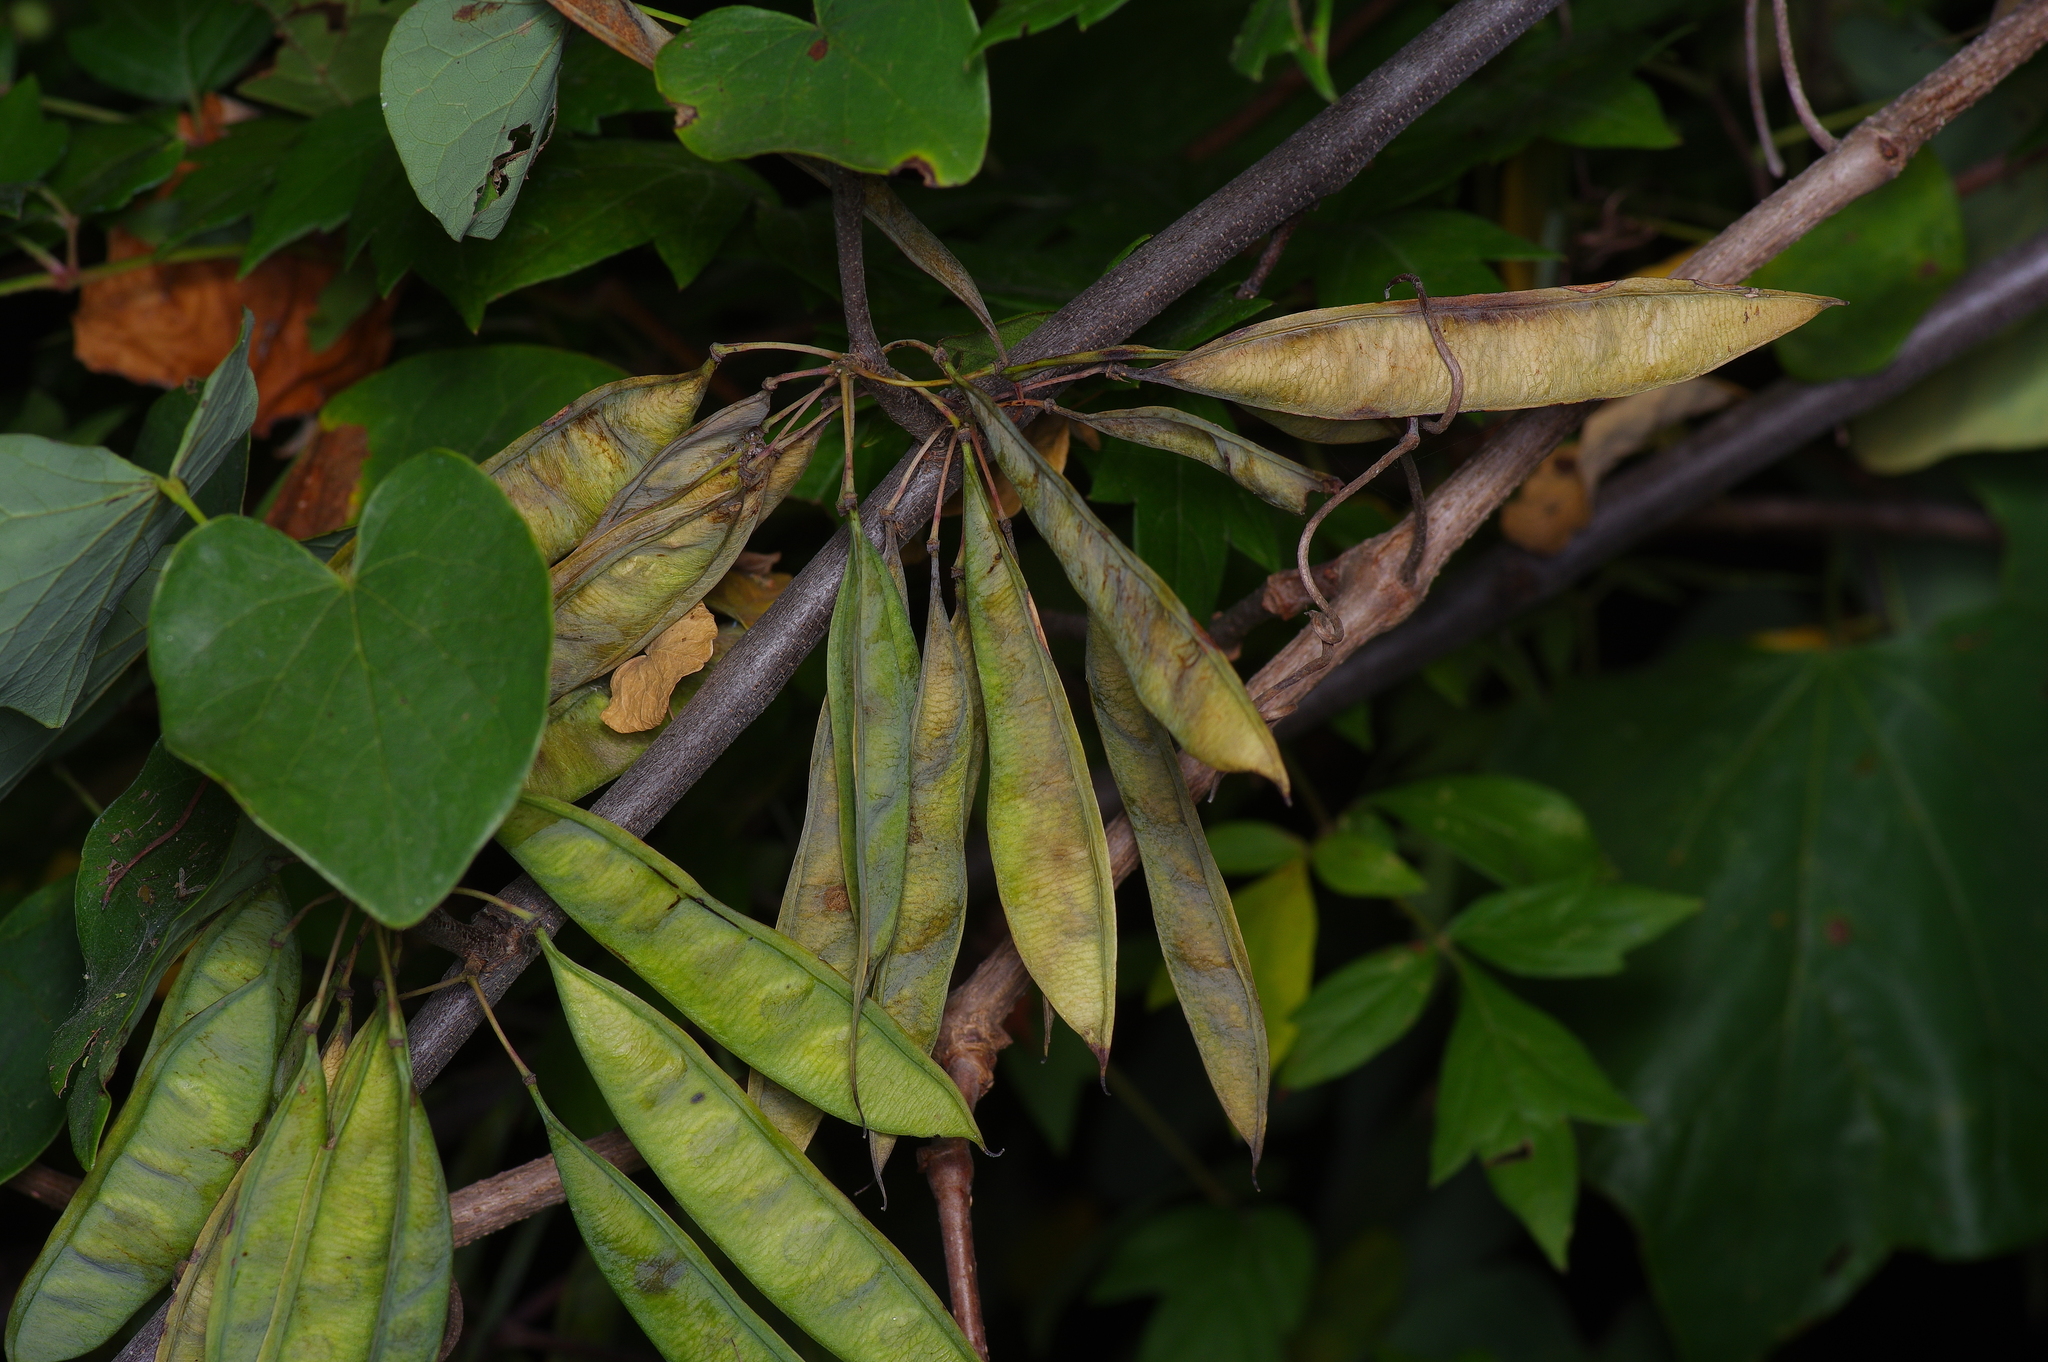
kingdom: Plantae
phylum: Tracheophyta
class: Magnoliopsida
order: Fabales
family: Fabaceae
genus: Cercis
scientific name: Cercis canadensis
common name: Eastern redbud
